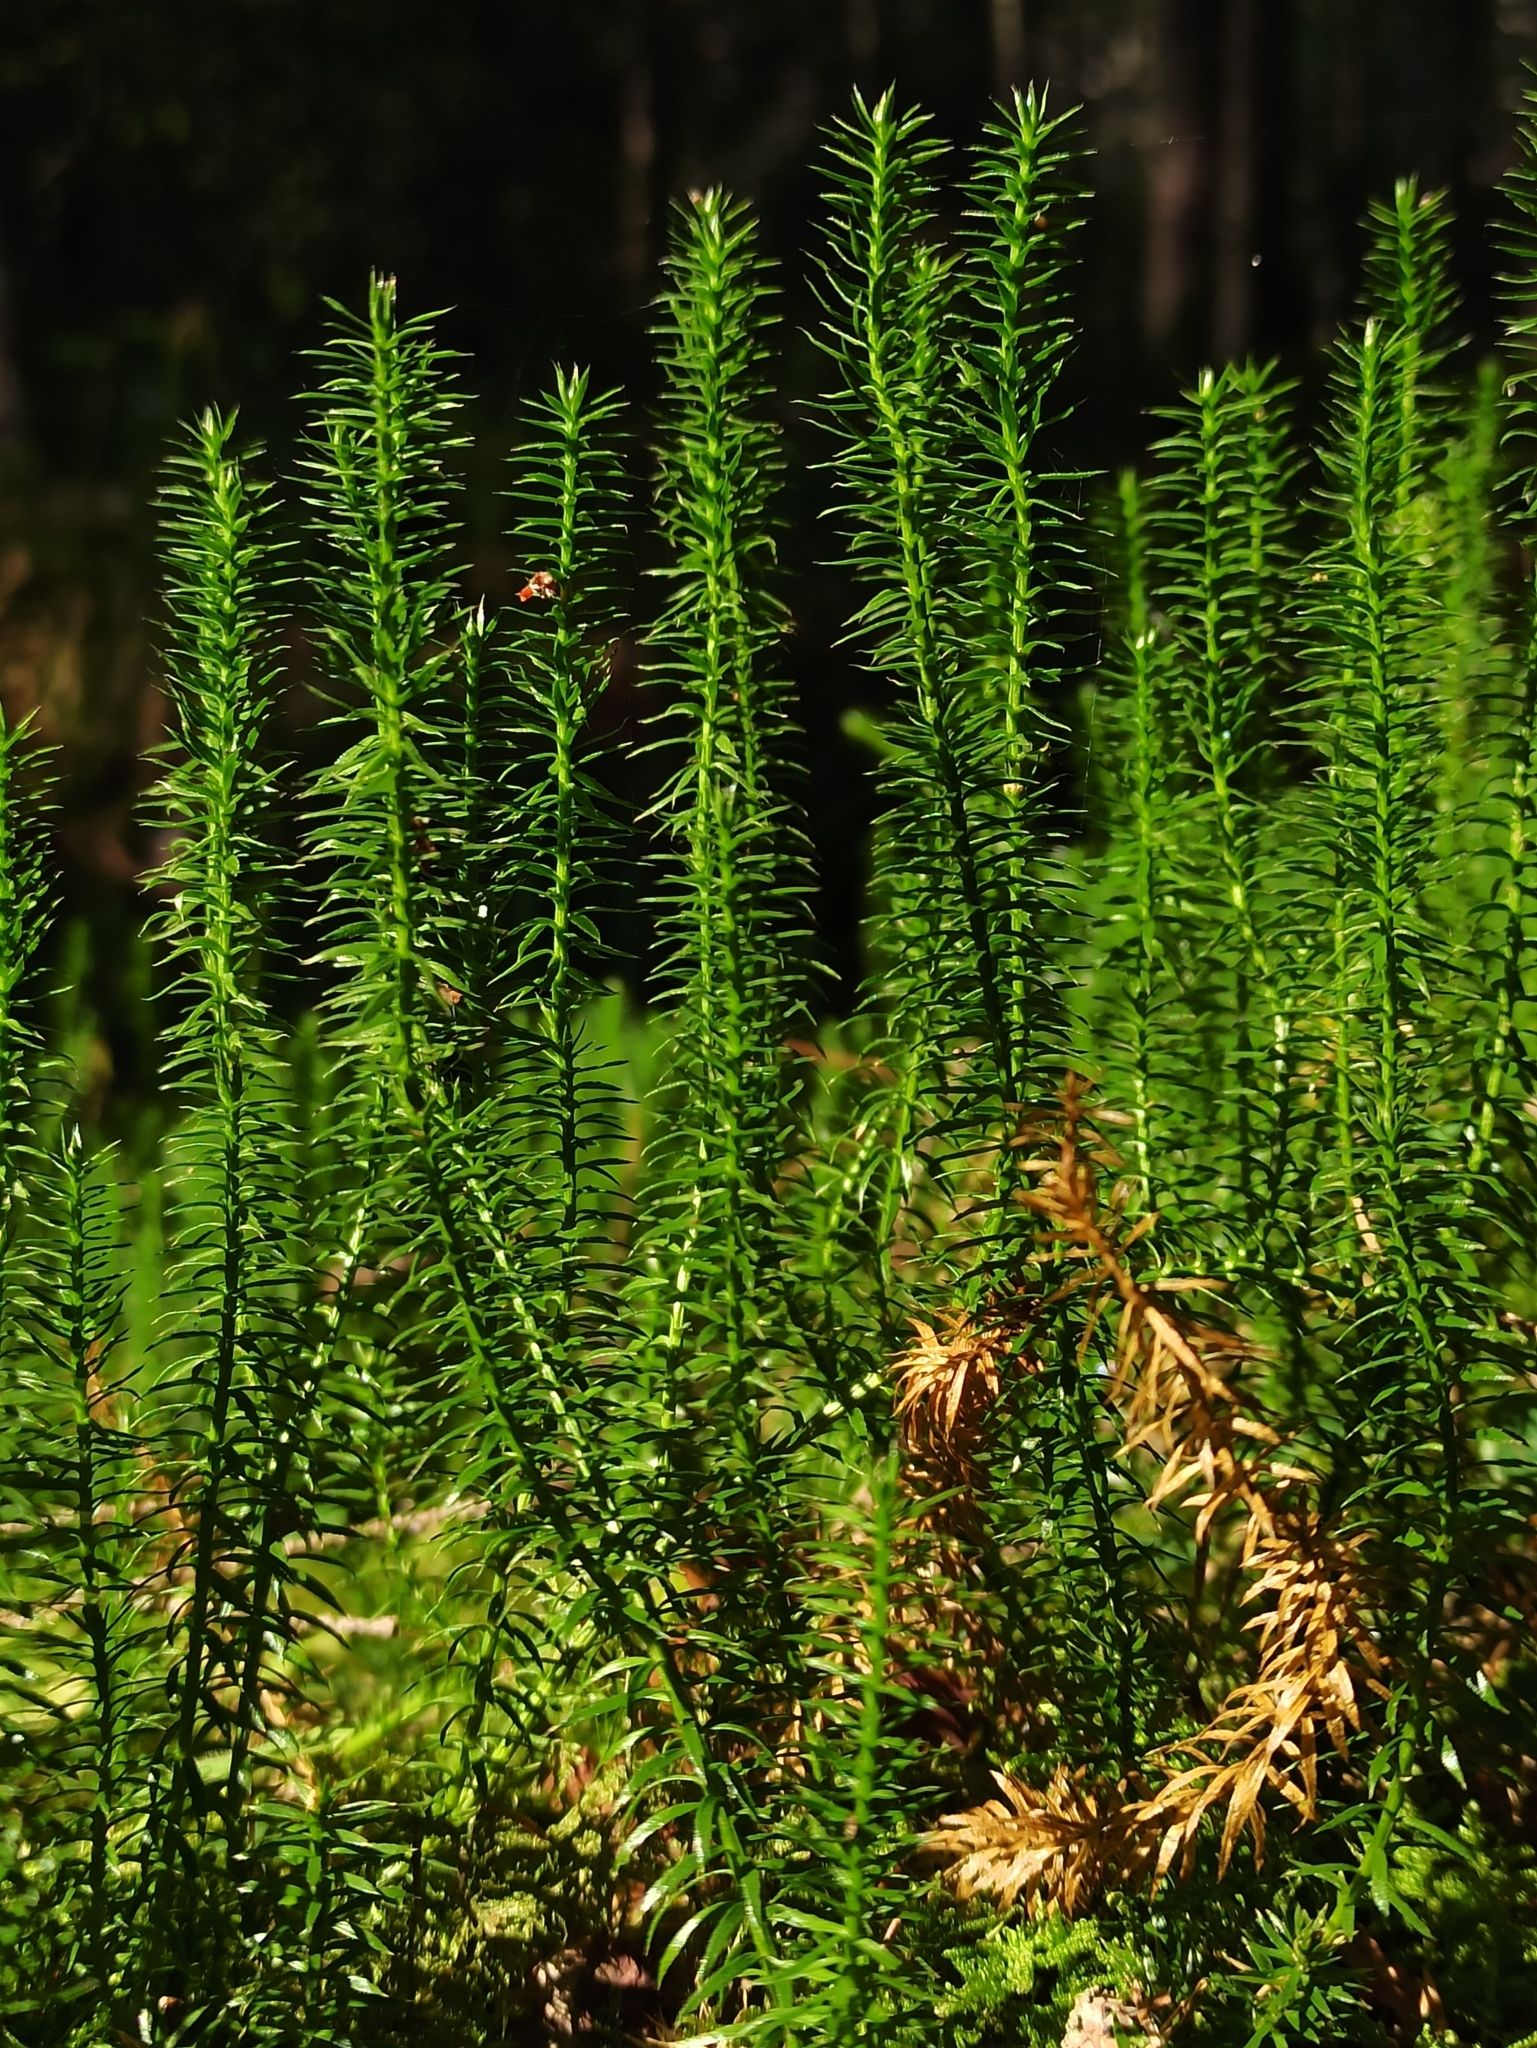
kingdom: Plantae
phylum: Tracheophyta
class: Lycopodiopsida
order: Lycopodiales
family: Lycopodiaceae
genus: Spinulum
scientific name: Spinulum annotinum
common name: Interrupted club-moss
